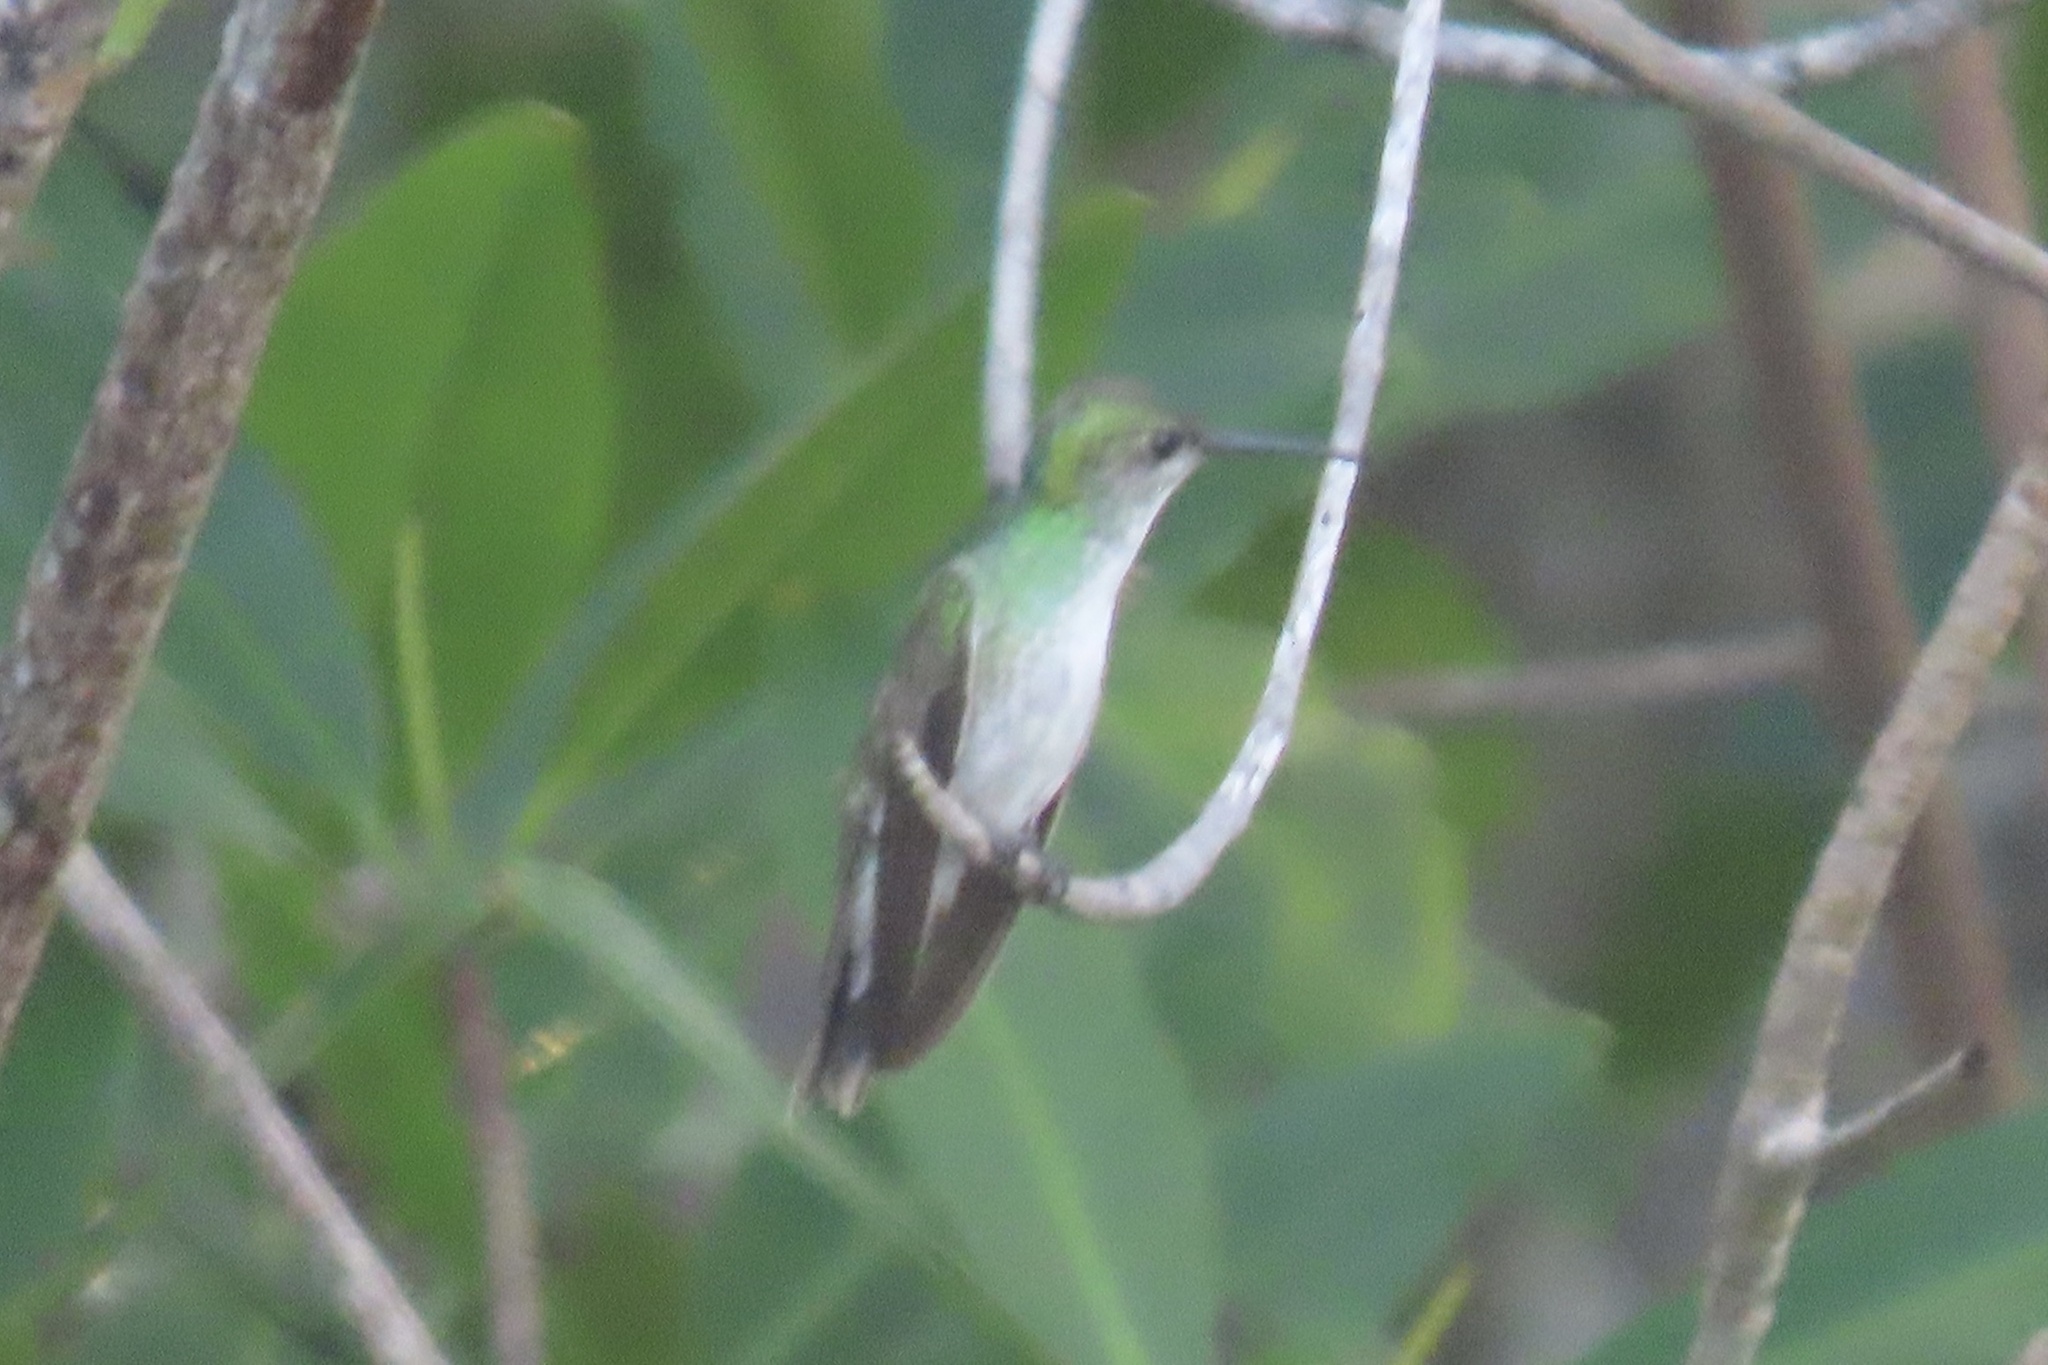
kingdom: Animalia
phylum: Chordata
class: Aves
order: Apodiformes
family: Trochilidae
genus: Amazilia
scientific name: Amazilia boucardi
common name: Mangrove hummingbird
